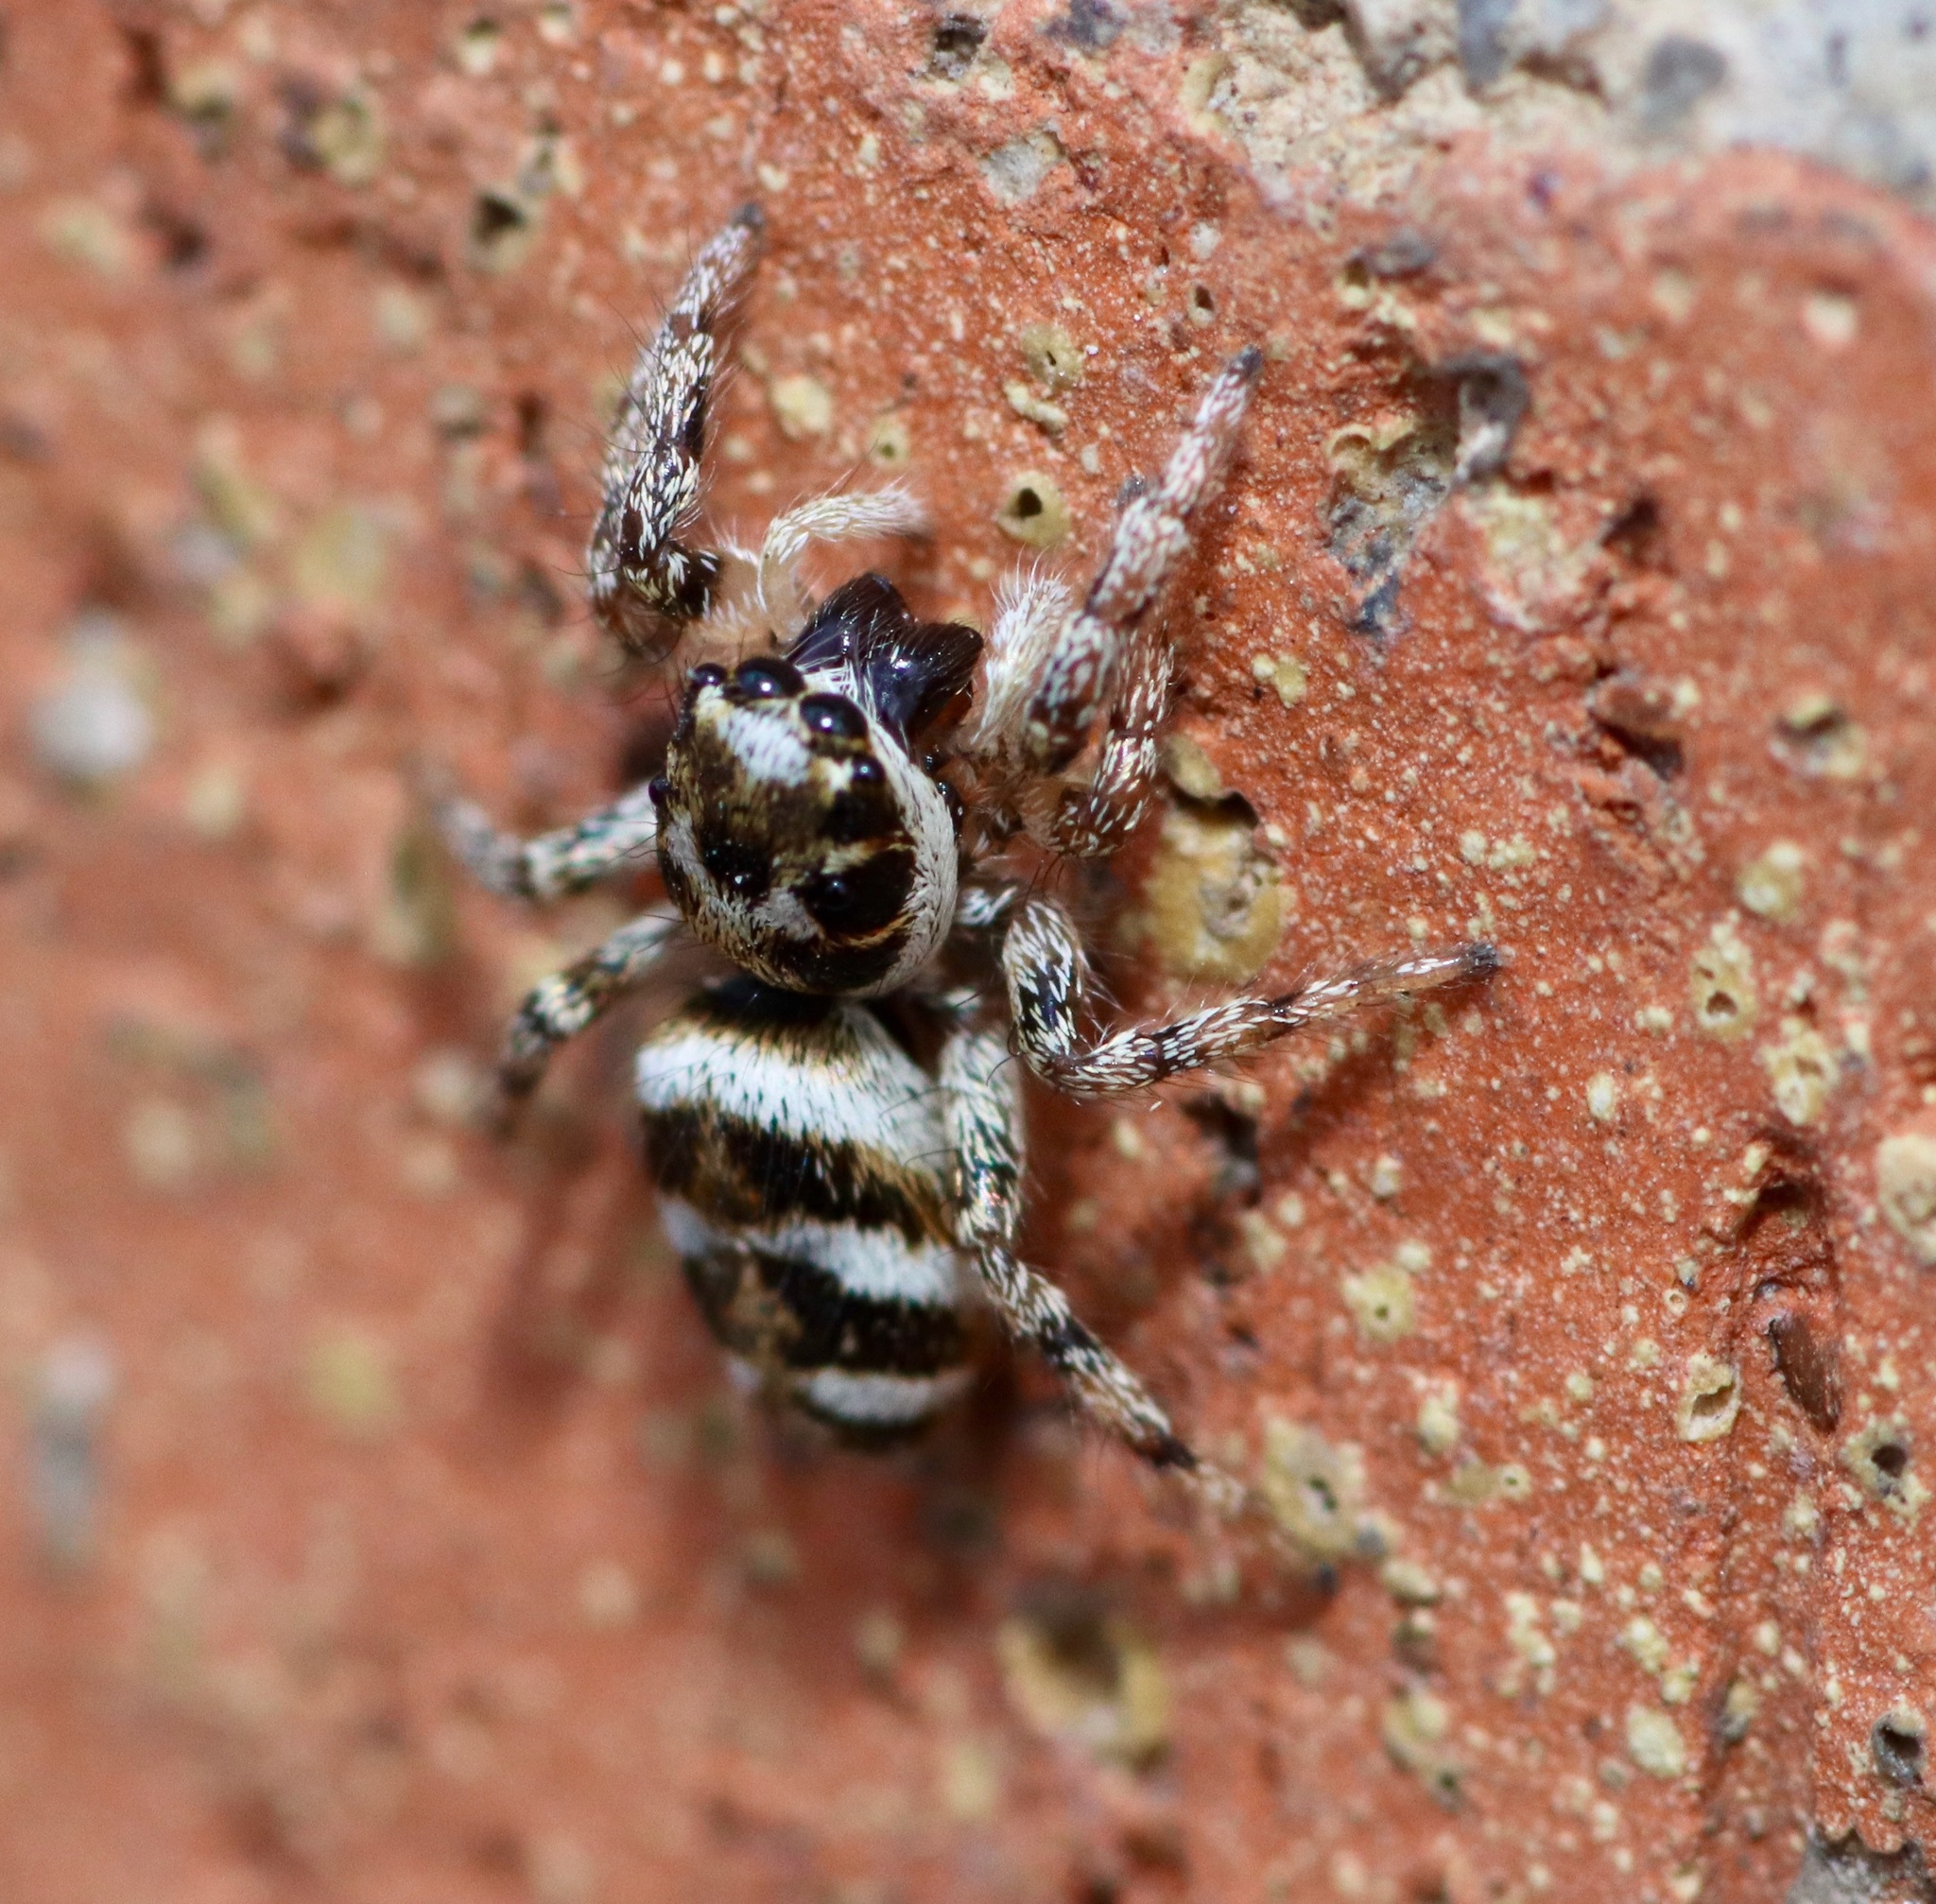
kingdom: Animalia
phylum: Arthropoda
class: Arachnida
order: Araneae
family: Salticidae
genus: Salticus
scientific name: Salticus scenicus
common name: Zebra jumper
